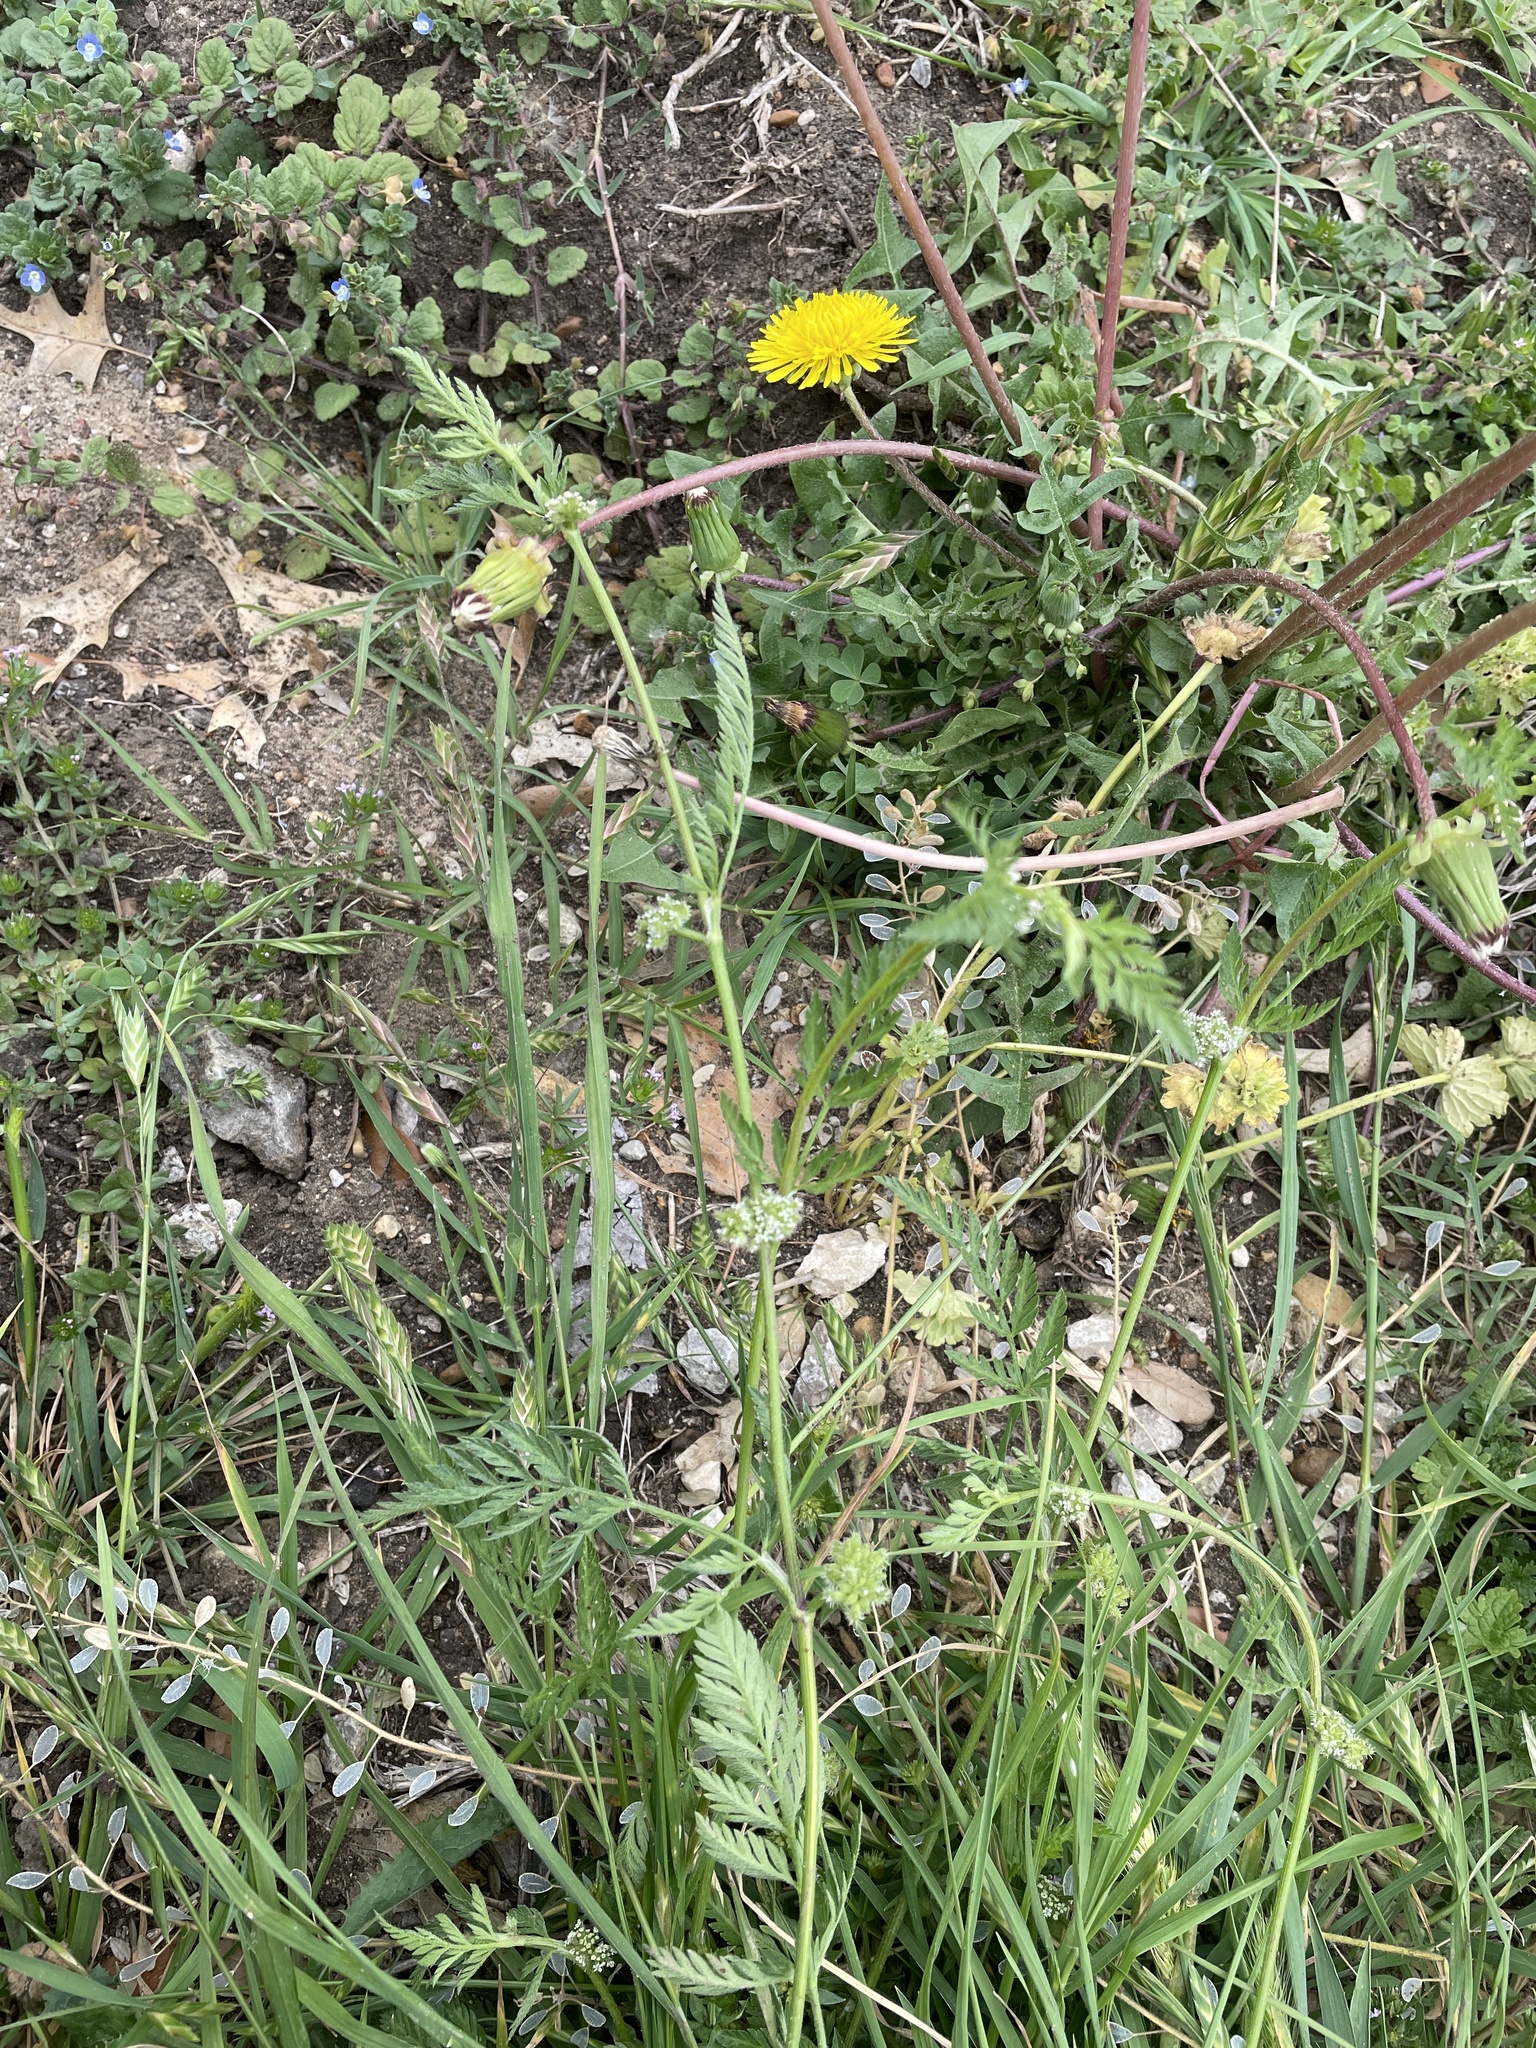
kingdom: Plantae
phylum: Tracheophyta
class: Magnoliopsida
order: Apiales
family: Apiaceae
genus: Torilis
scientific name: Torilis nodosa
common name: Knotted hedge-parsley
